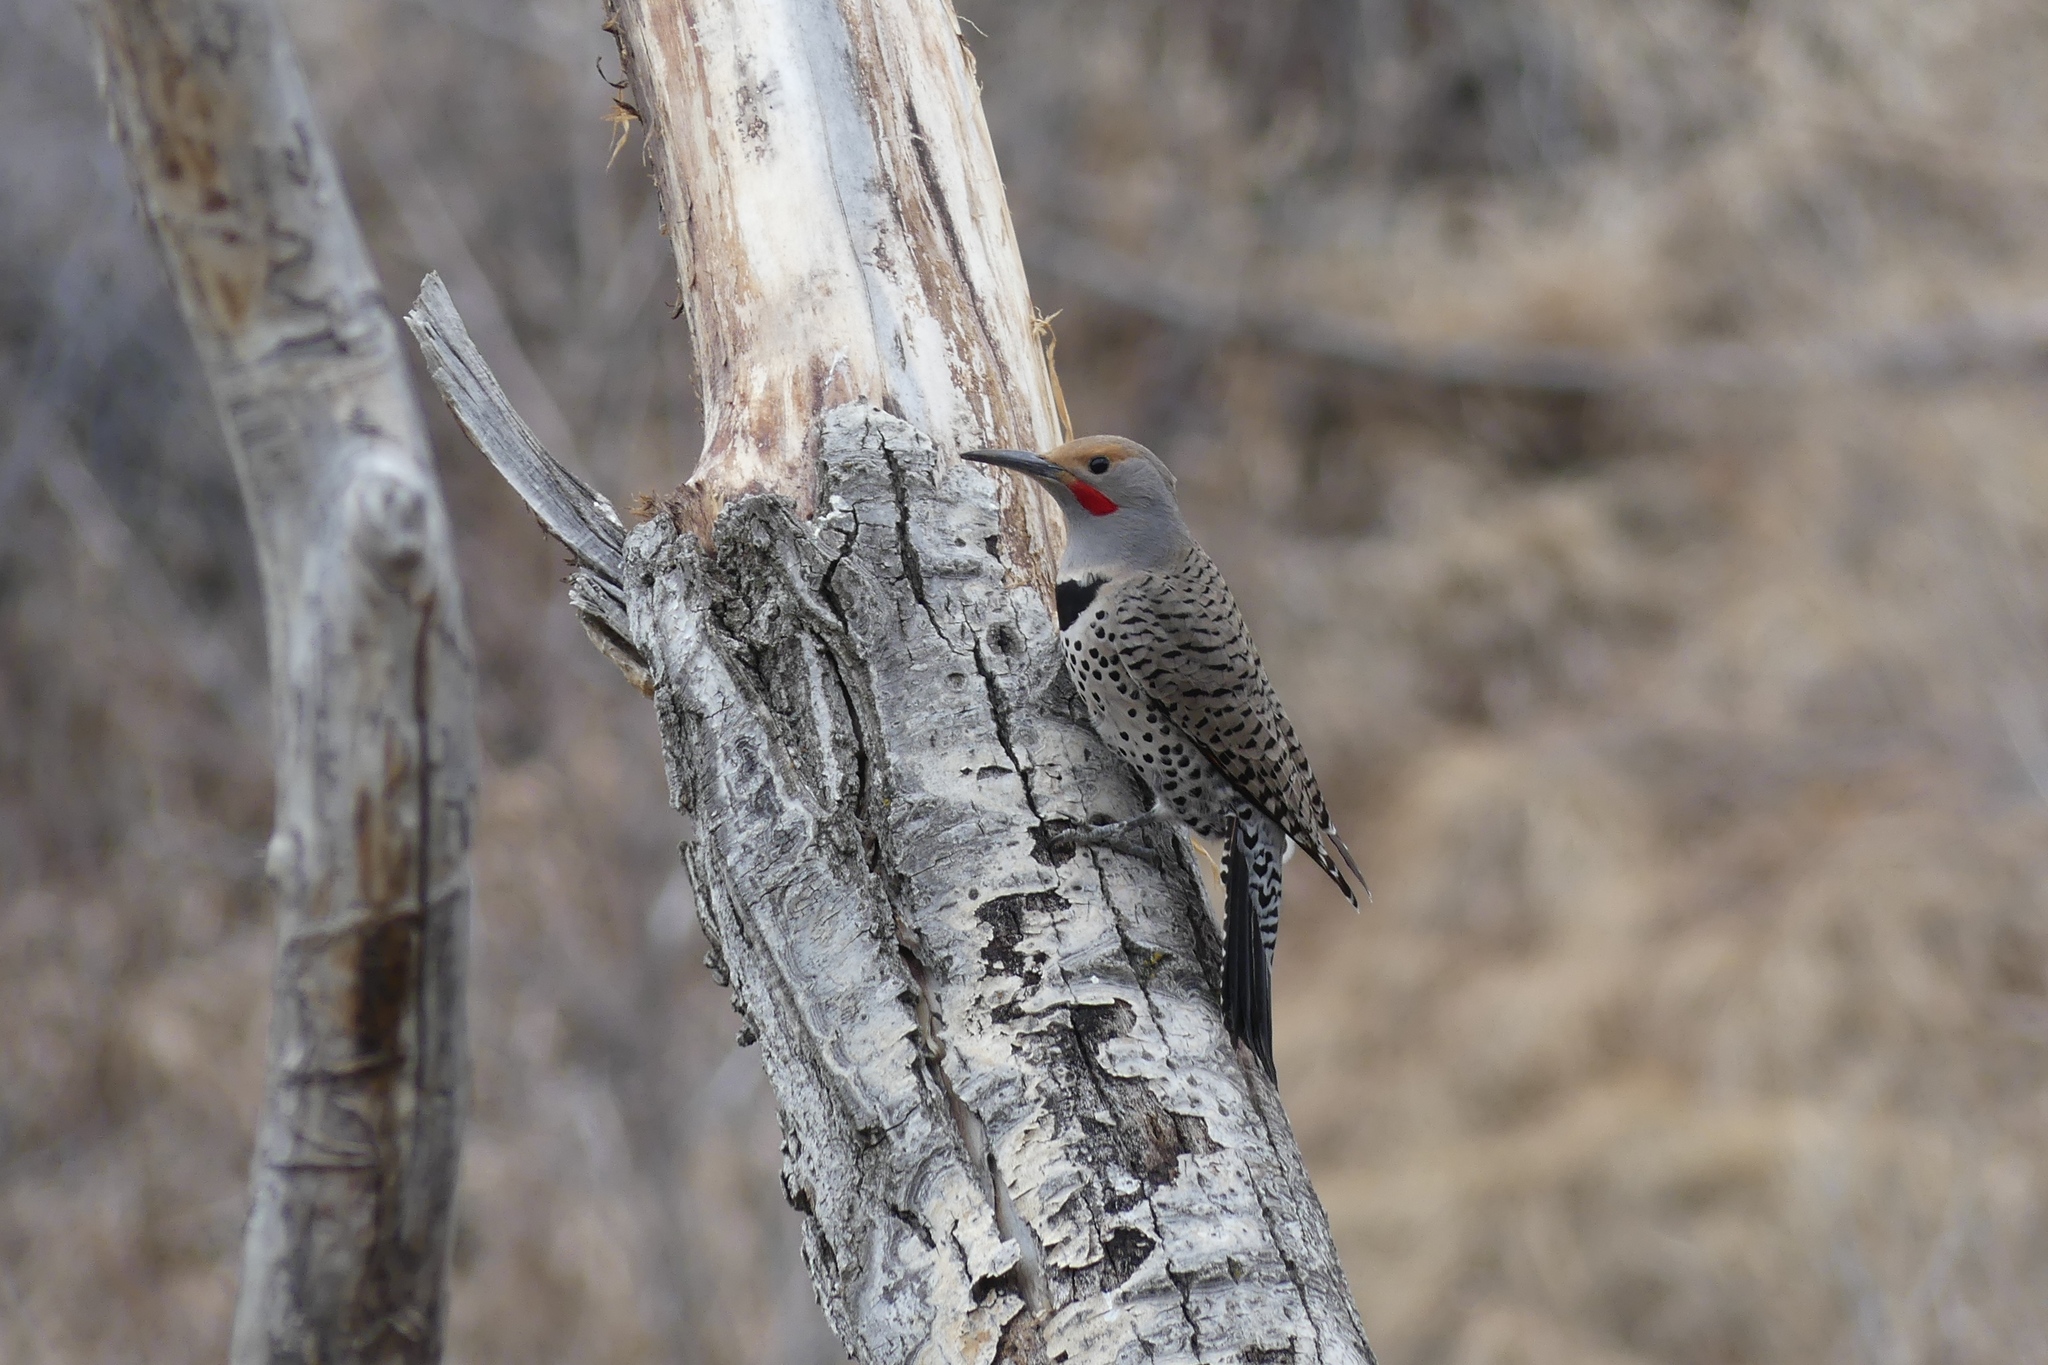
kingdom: Animalia
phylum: Chordata
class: Aves
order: Piciformes
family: Picidae
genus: Colaptes
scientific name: Colaptes auratus
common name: Northern flicker
